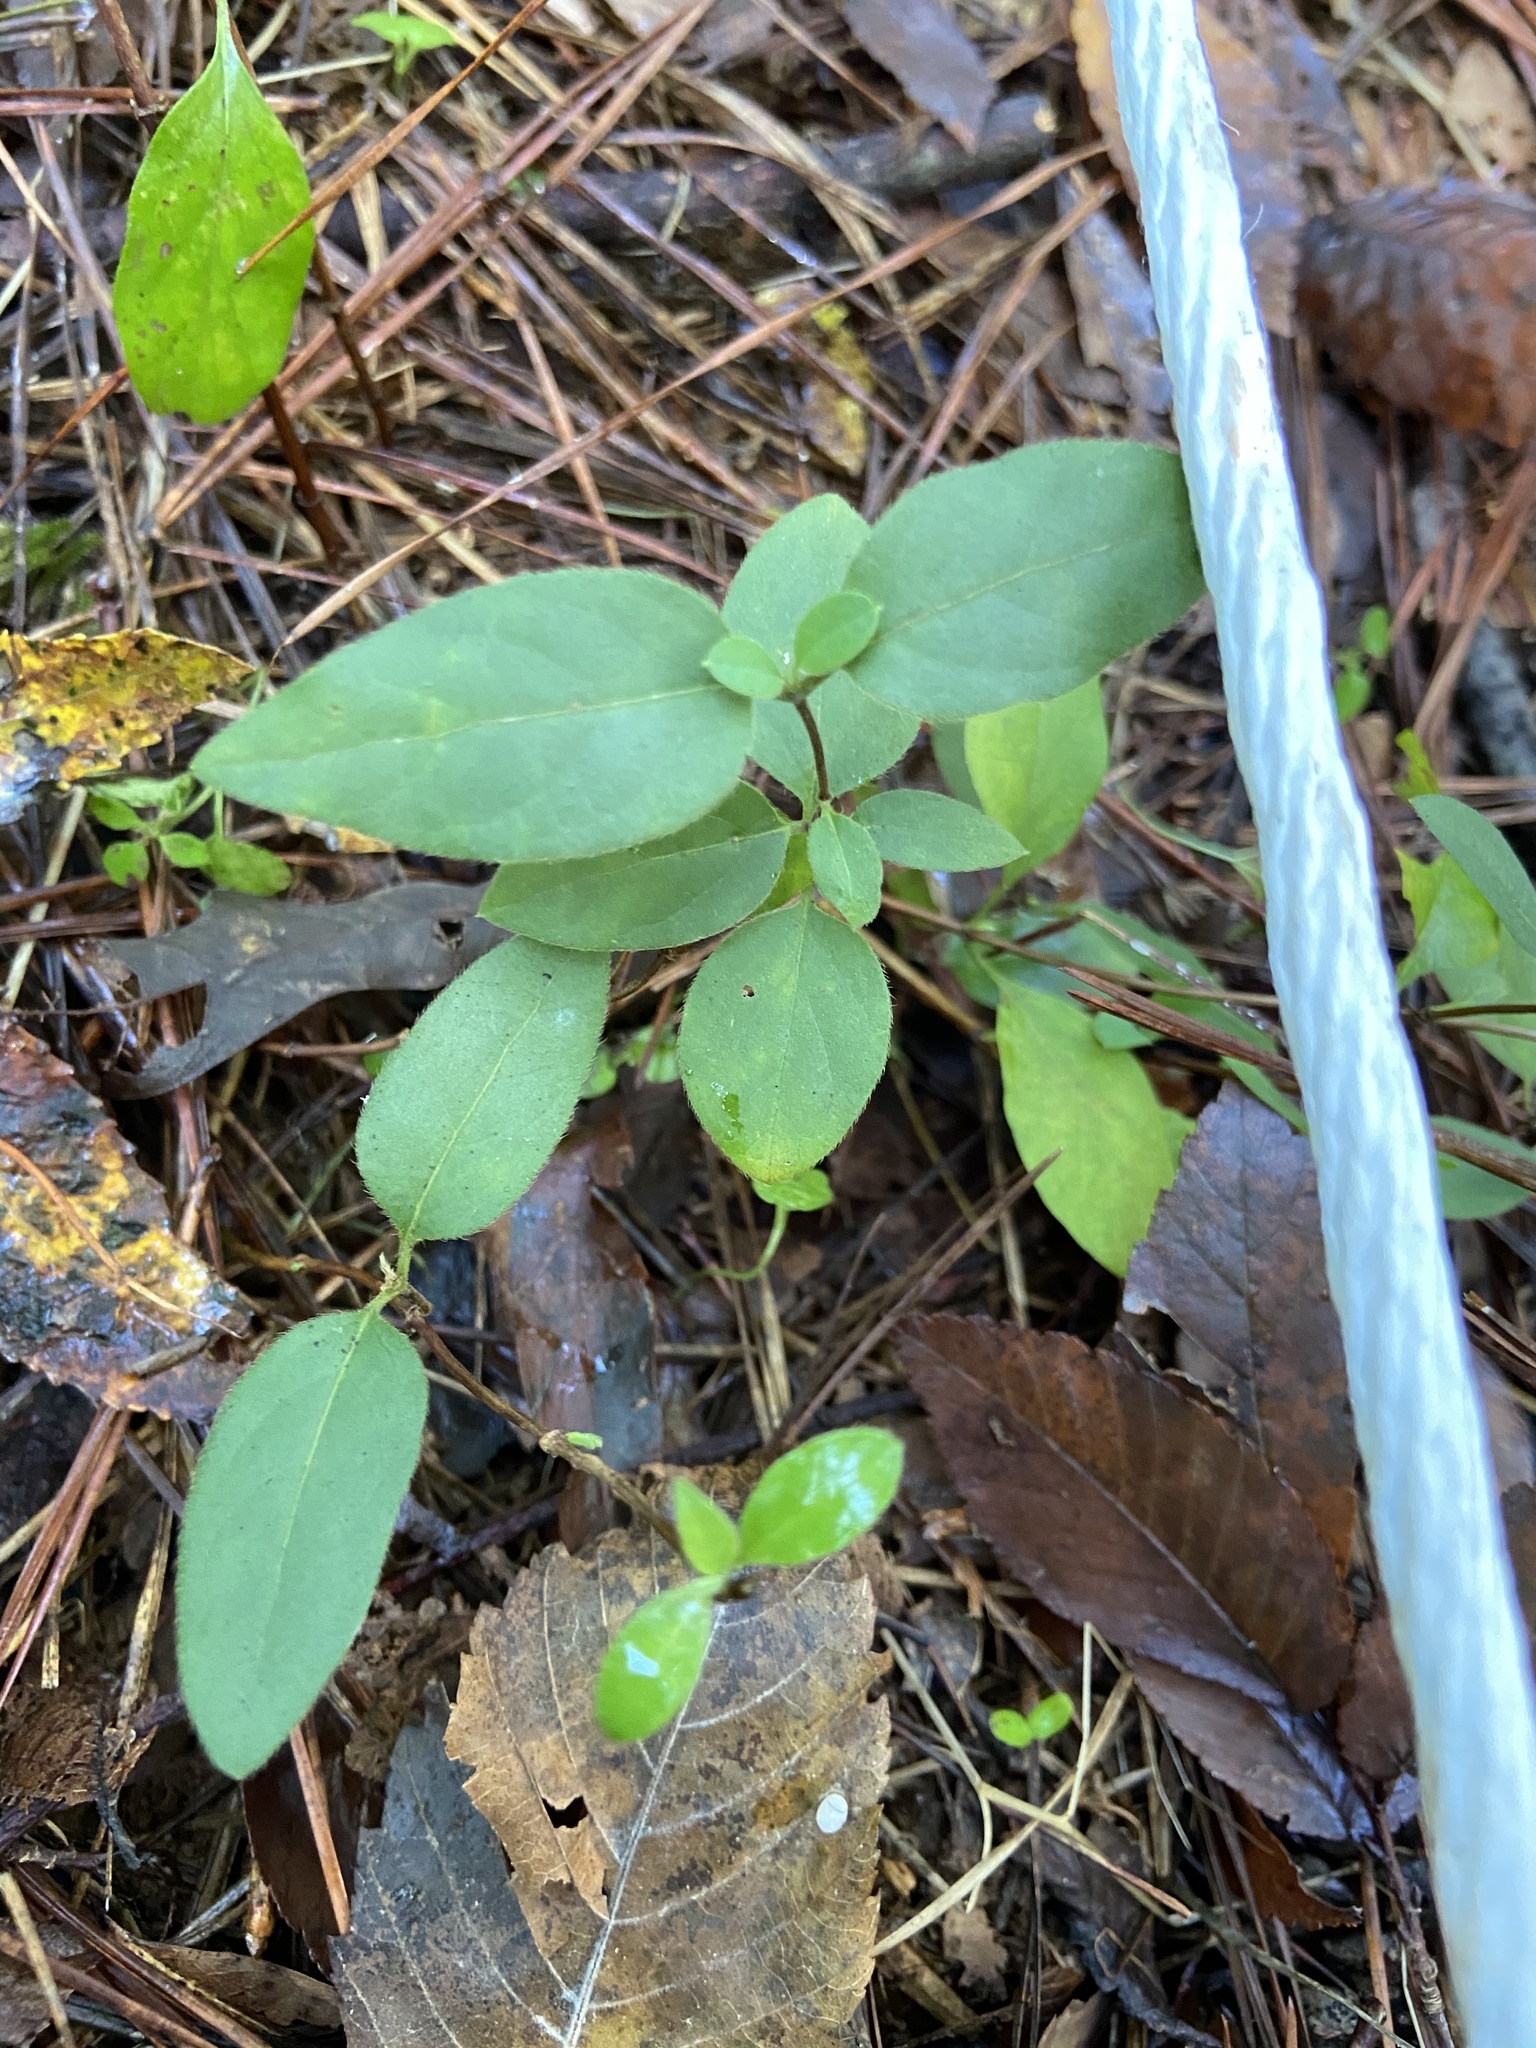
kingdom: Plantae
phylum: Tracheophyta
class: Magnoliopsida
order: Dipsacales
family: Caprifoliaceae
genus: Lonicera
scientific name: Lonicera japonica
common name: Japanese honeysuckle
